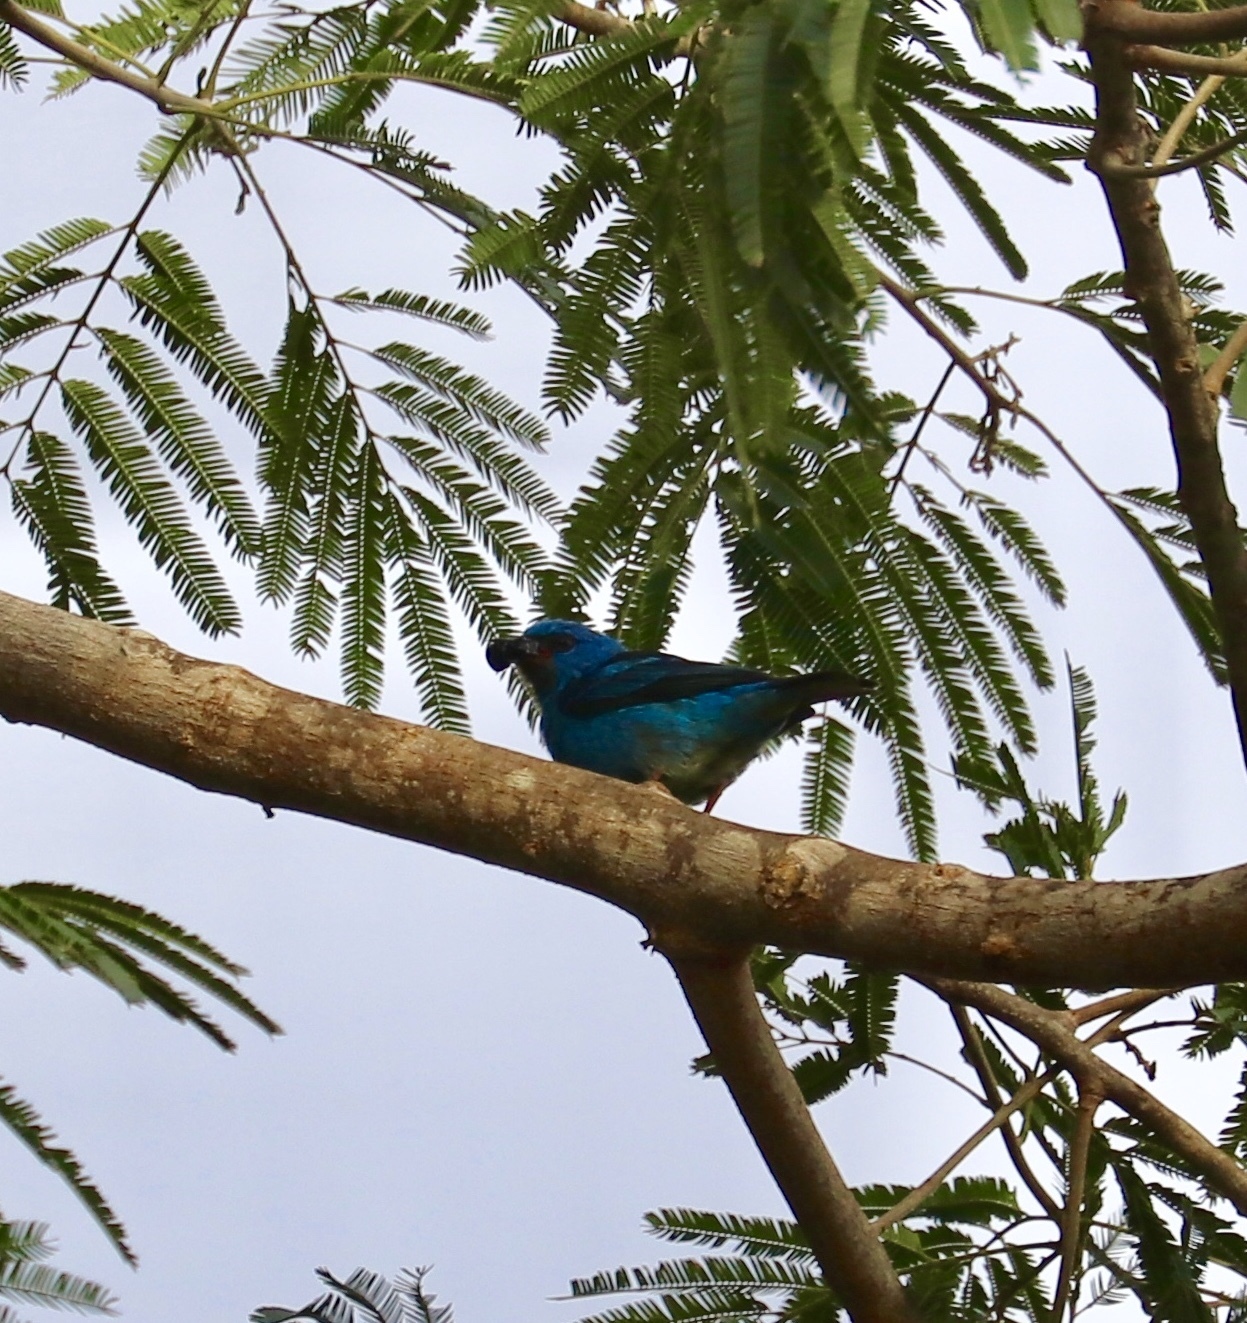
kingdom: Animalia
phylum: Chordata
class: Aves
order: Passeriformes
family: Thraupidae
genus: Dacnis
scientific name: Dacnis cayana
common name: Blue dacnis
